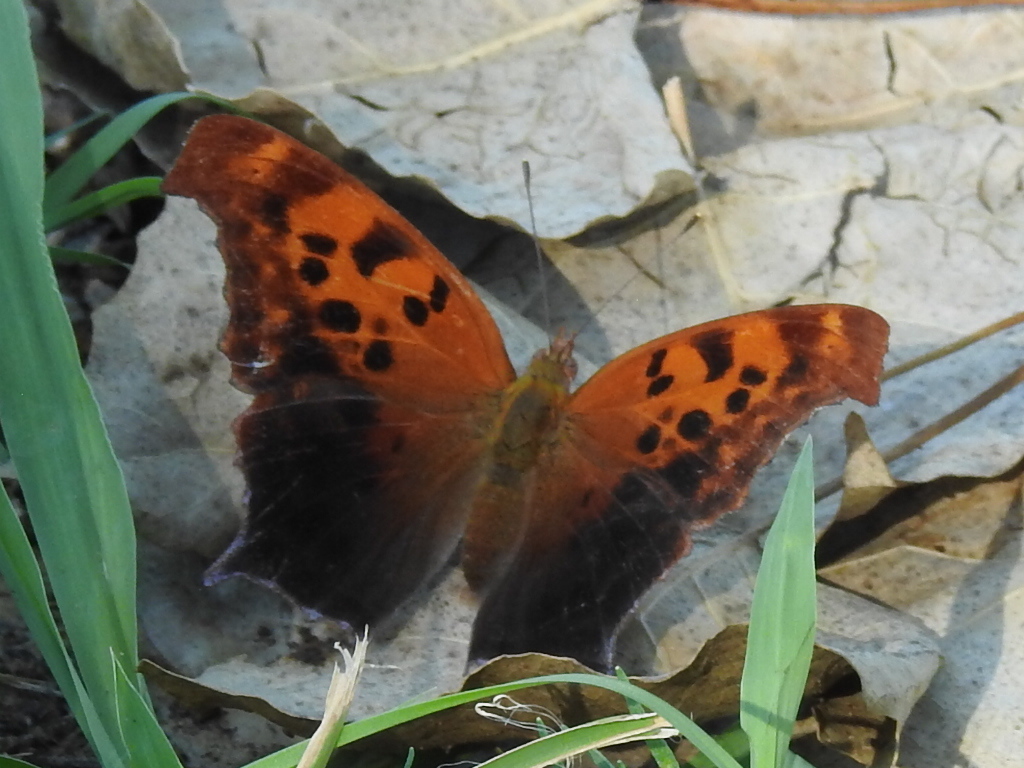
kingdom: Animalia
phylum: Arthropoda
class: Insecta
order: Lepidoptera
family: Nymphalidae
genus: Polygonia
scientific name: Polygonia interrogationis
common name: Question mark
